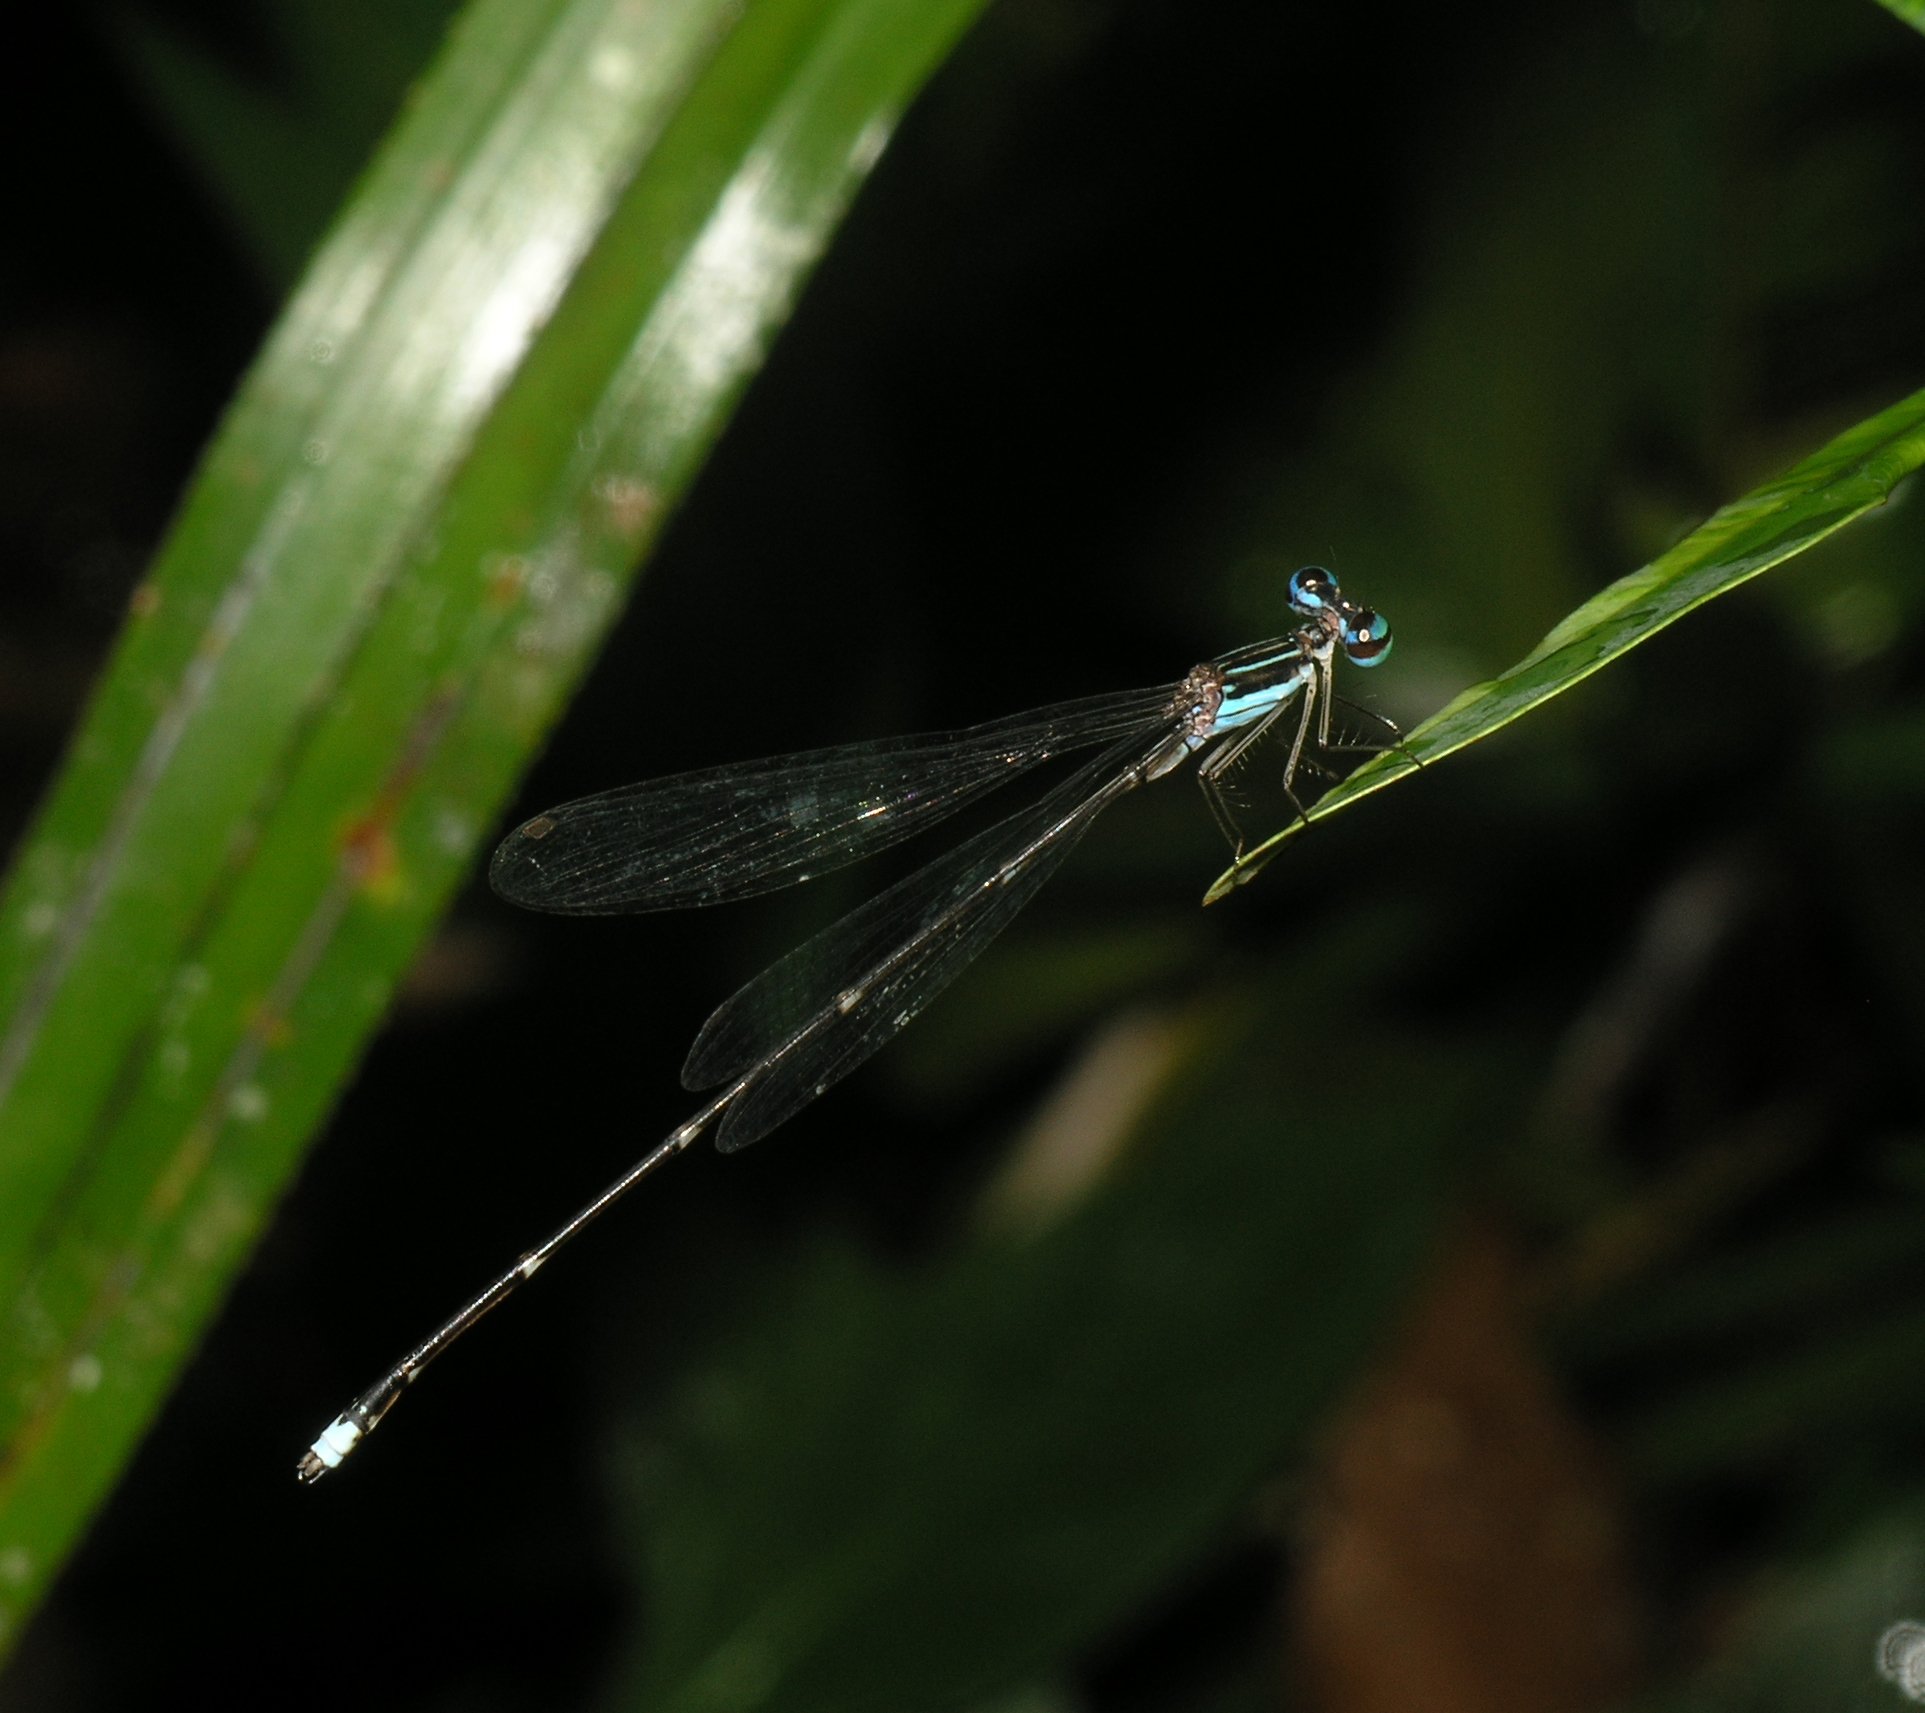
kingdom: Animalia
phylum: Arthropoda
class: Insecta
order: Odonata
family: Platycnemididae
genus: Coeliccia
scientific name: Coeliccia kazukoae
